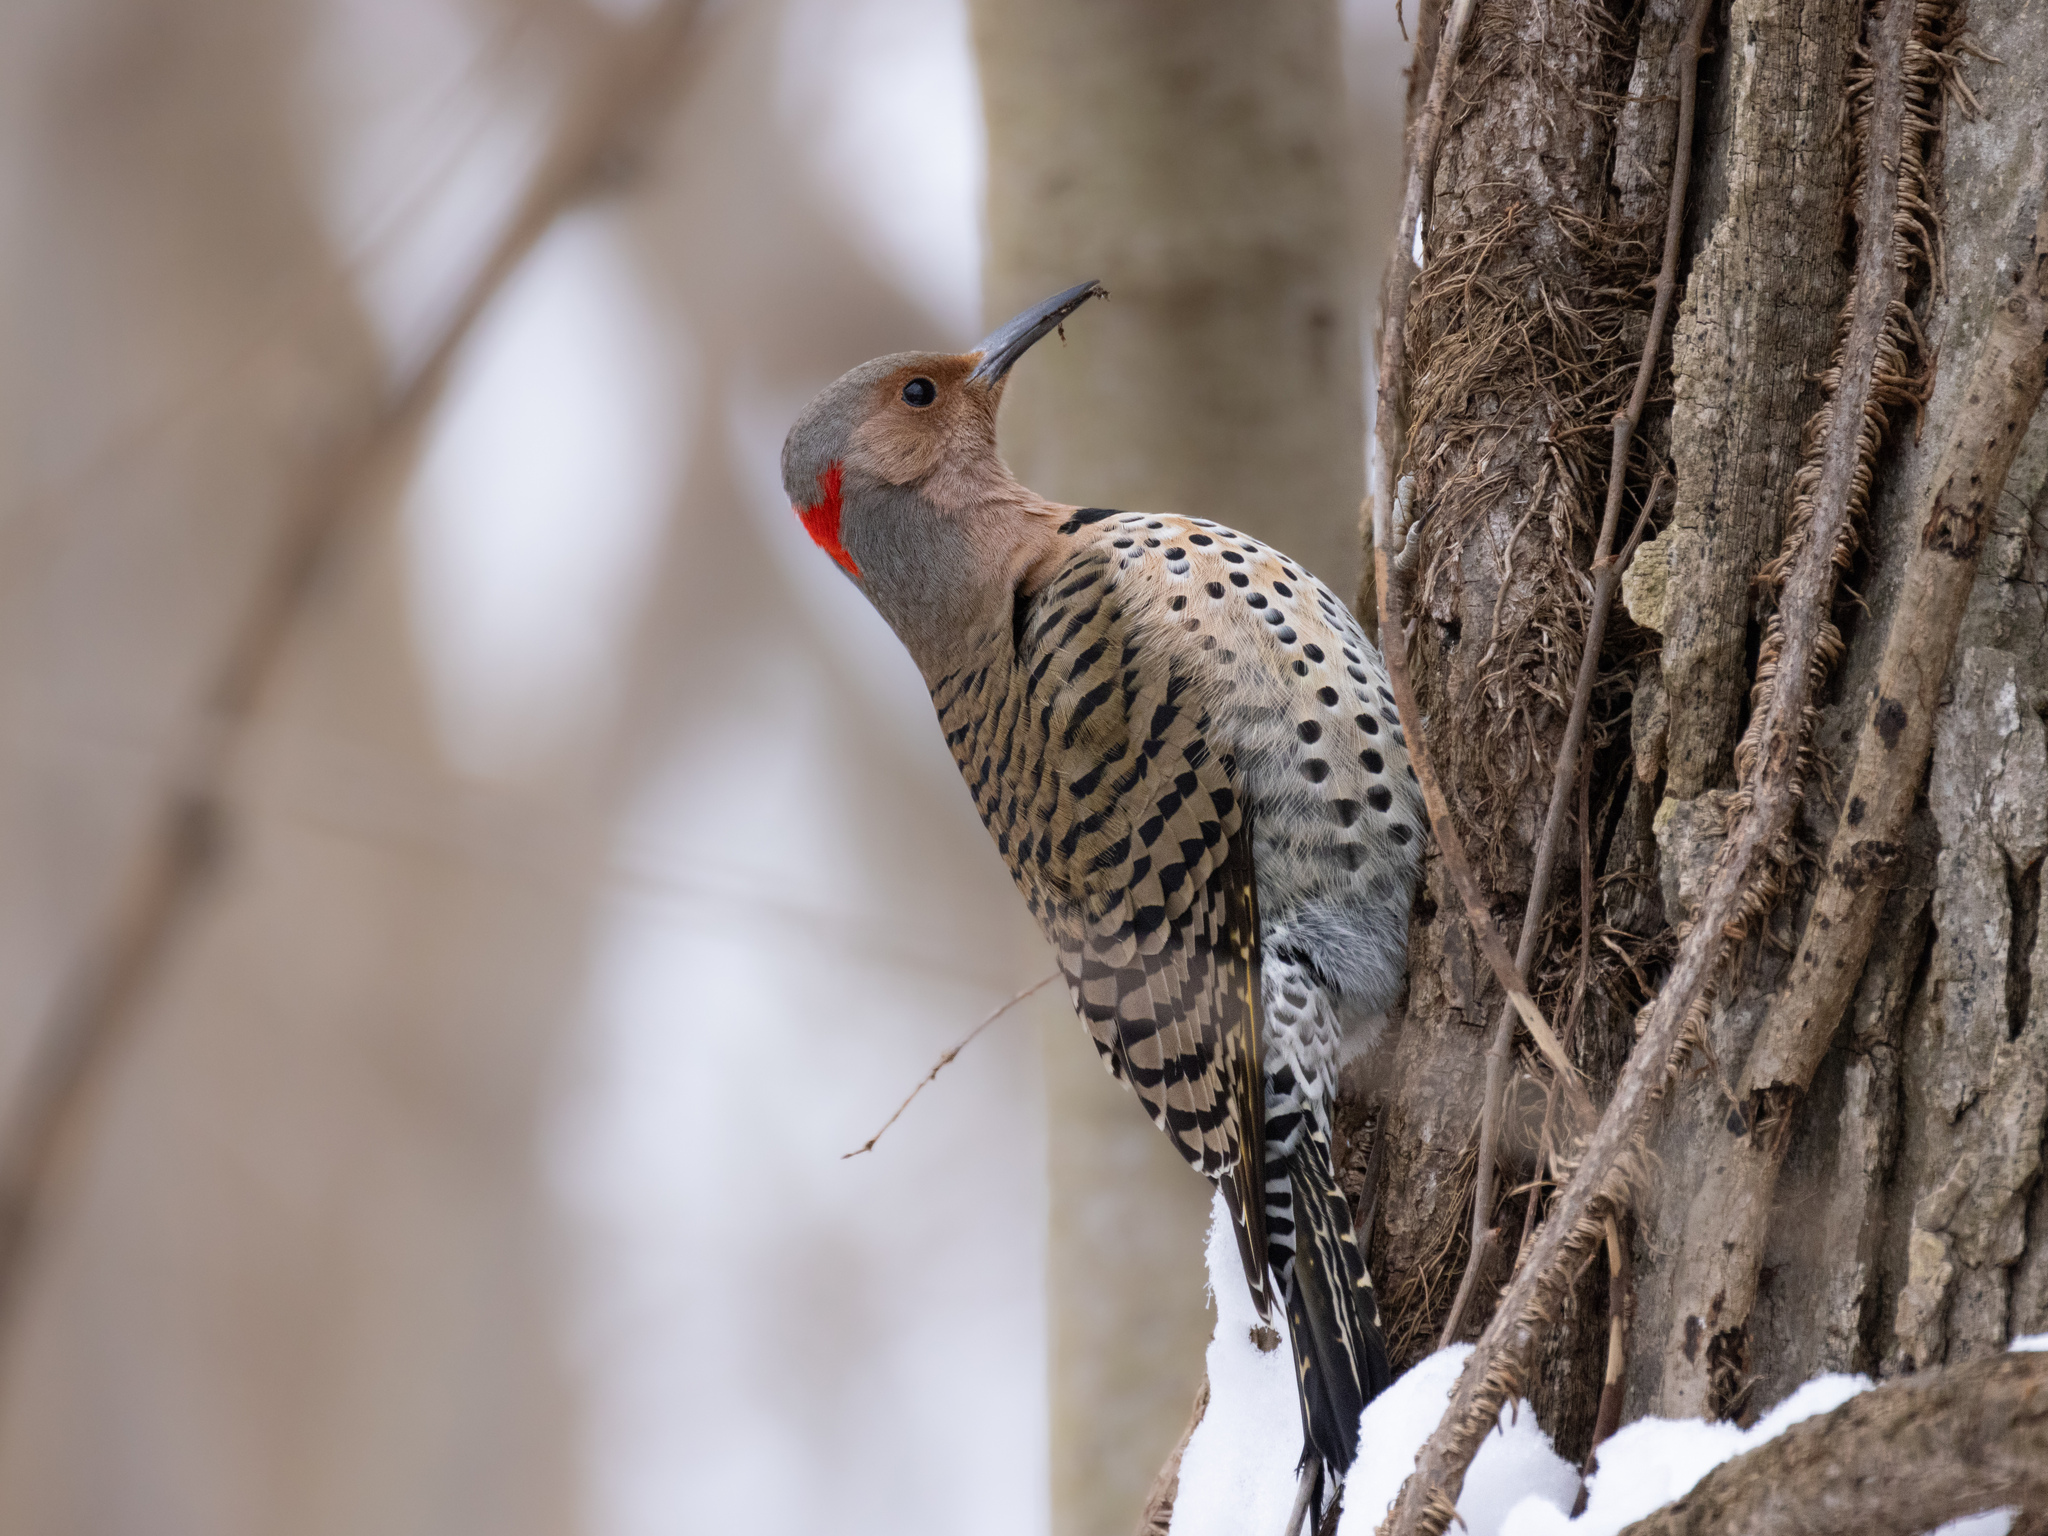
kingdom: Animalia
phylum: Chordata
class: Aves
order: Piciformes
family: Picidae
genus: Colaptes
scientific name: Colaptes auratus
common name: Northern flicker
